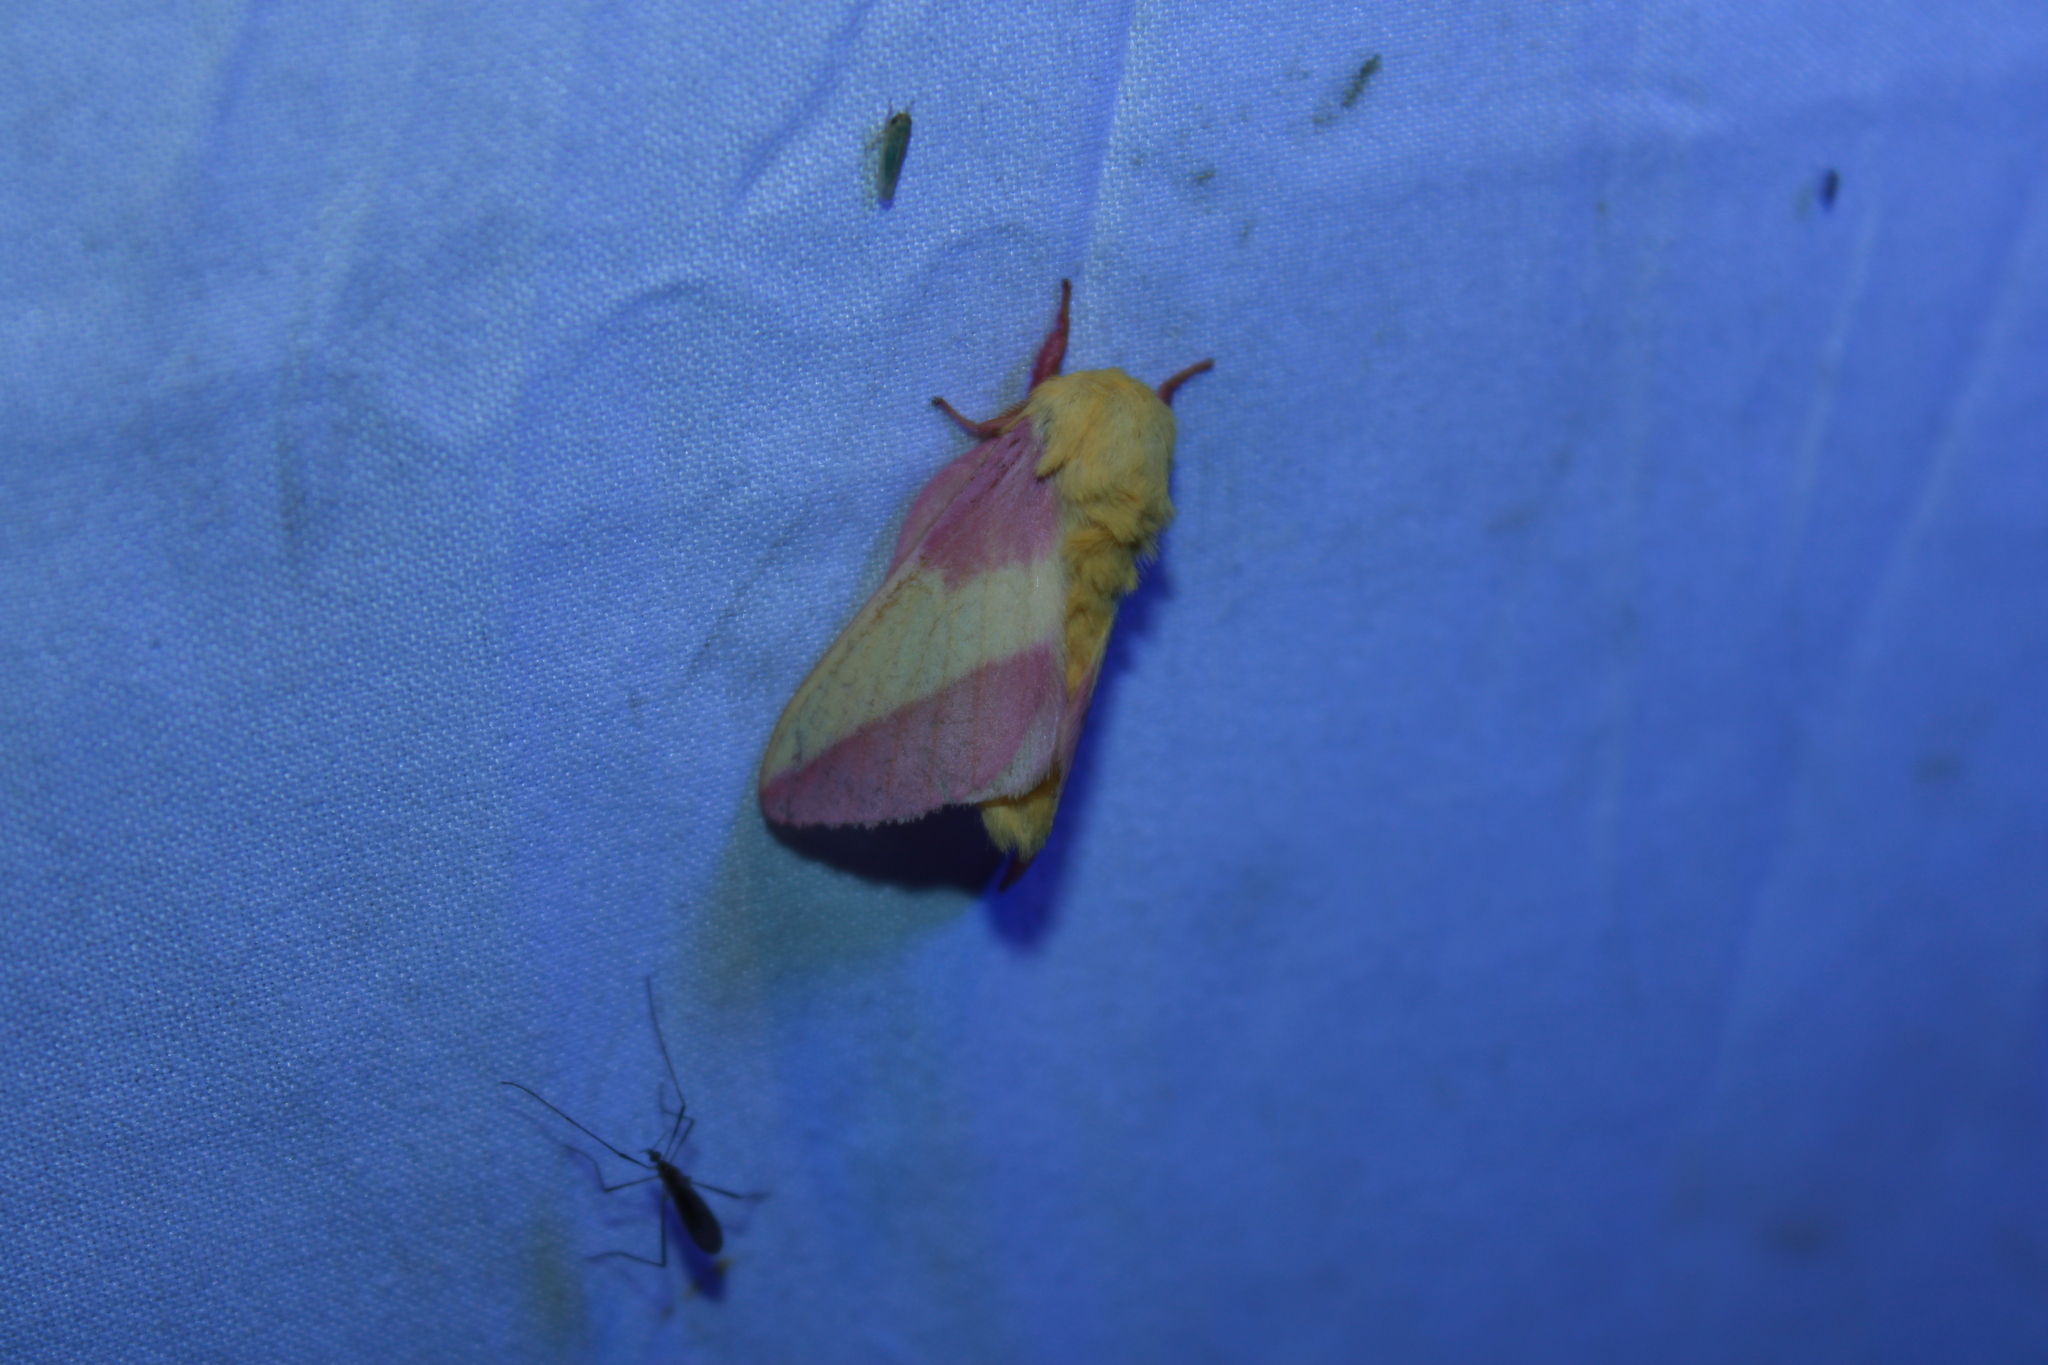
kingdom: Animalia
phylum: Arthropoda
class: Insecta
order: Lepidoptera
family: Saturniidae
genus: Dryocampa
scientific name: Dryocampa rubicunda
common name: Rosy maple moth
